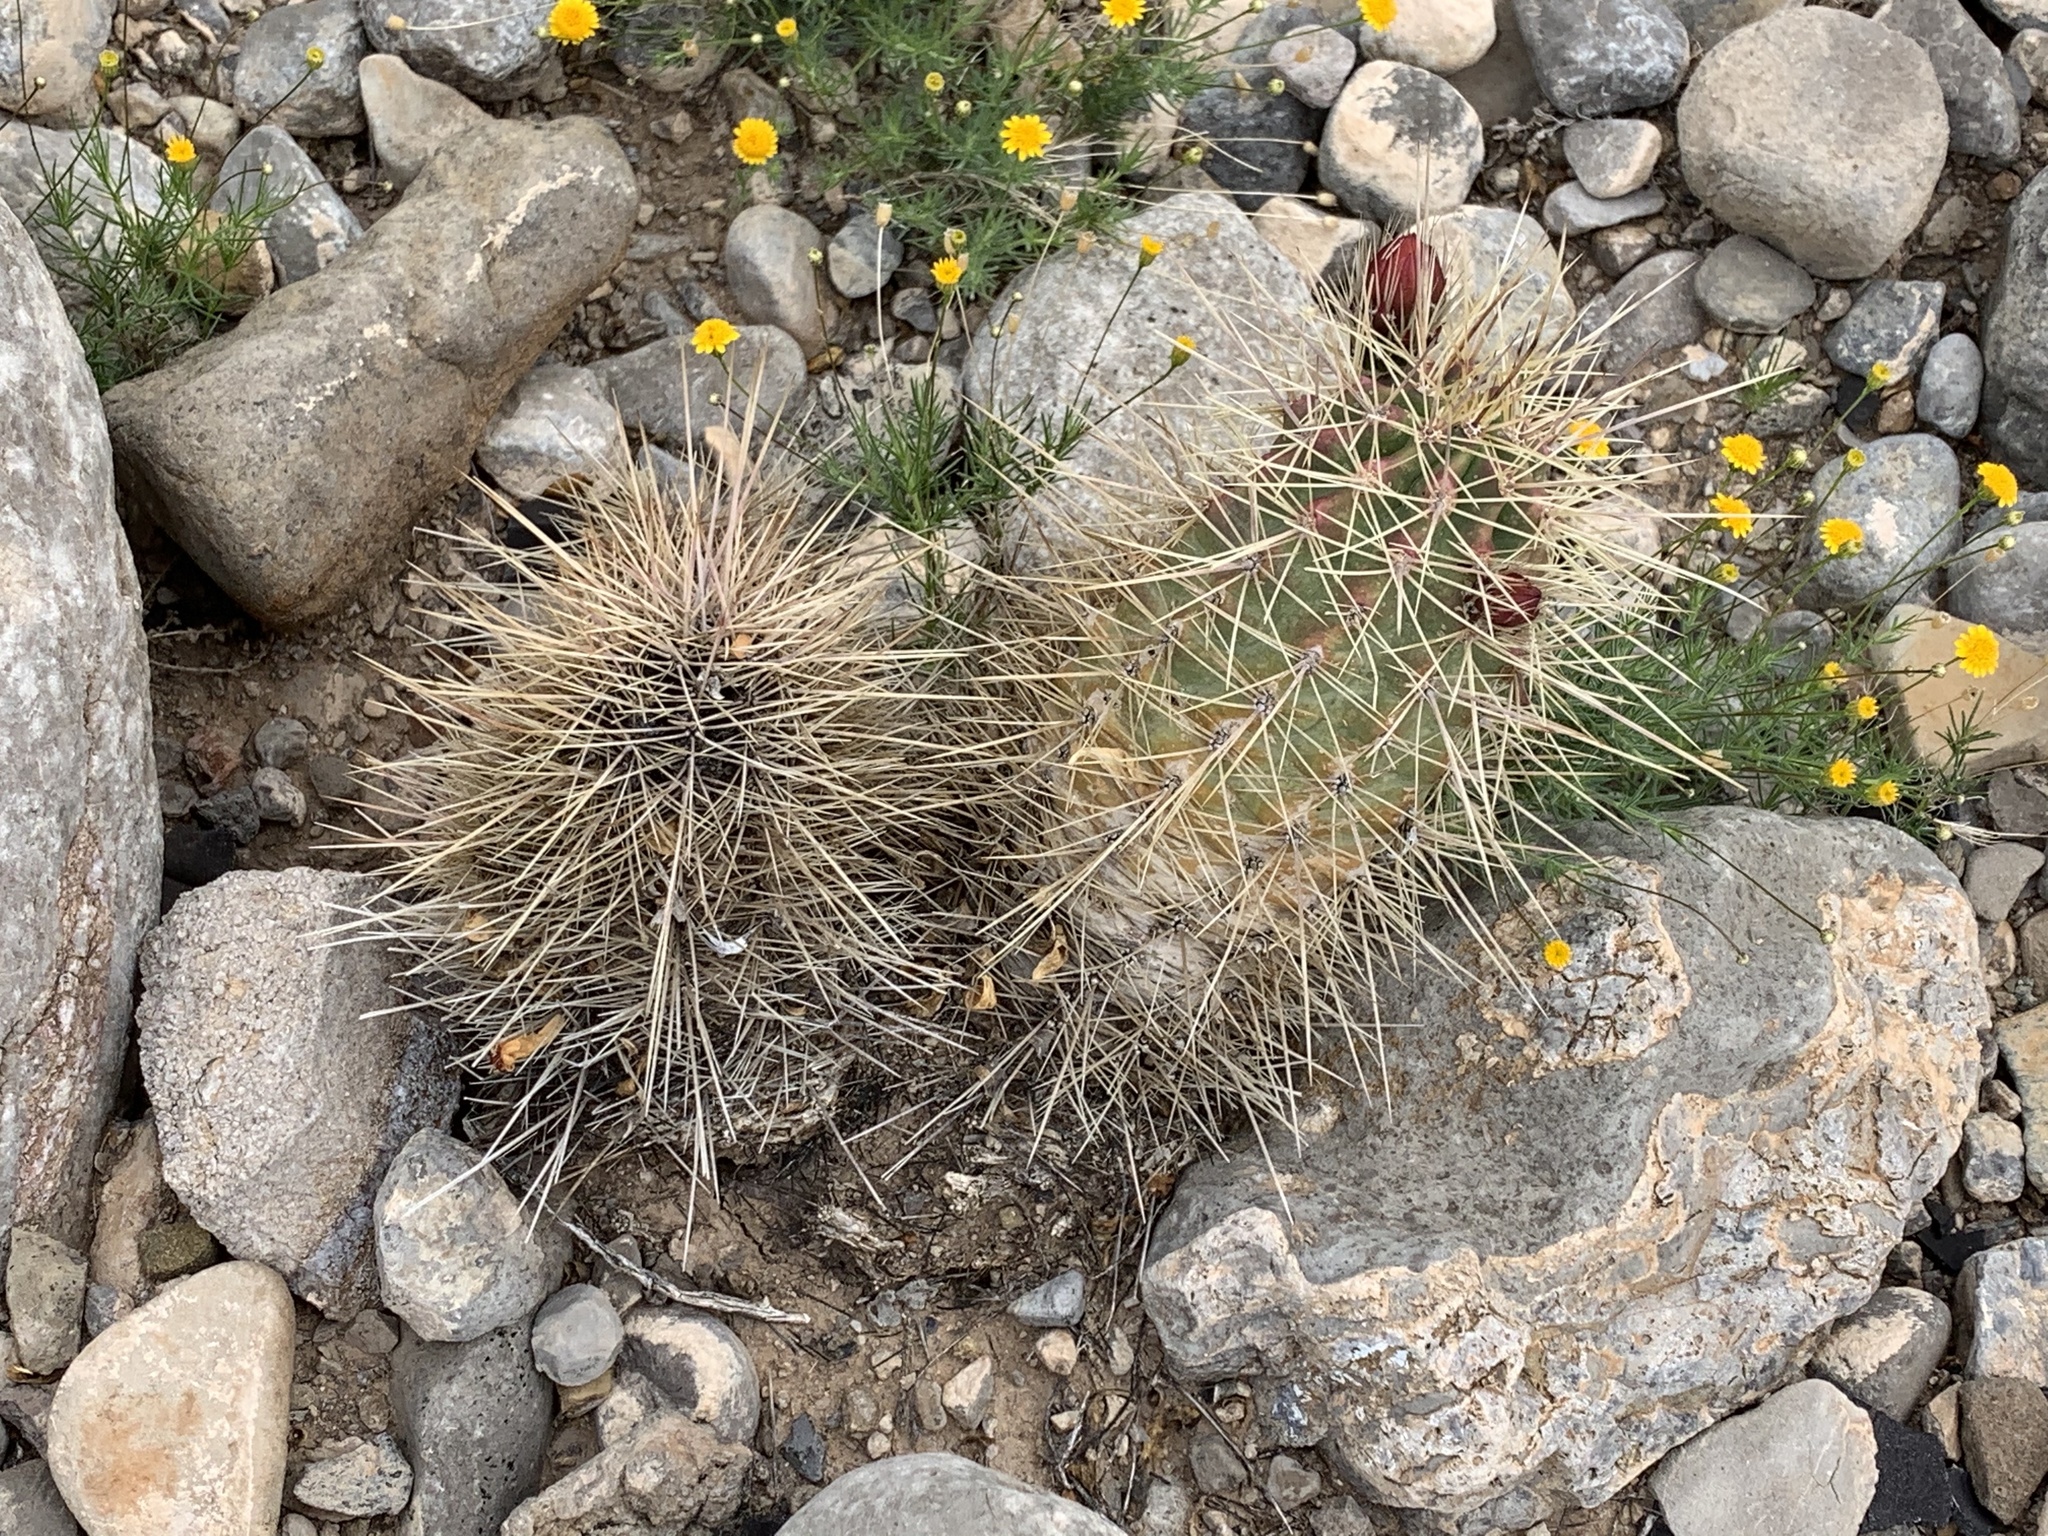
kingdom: Plantae
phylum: Tracheophyta
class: Magnoliopsida
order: Caryophyllales
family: Cactaceae
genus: Echinocereus
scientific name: Echinocereus coccineus
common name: Scarlet hedgehog cactus
